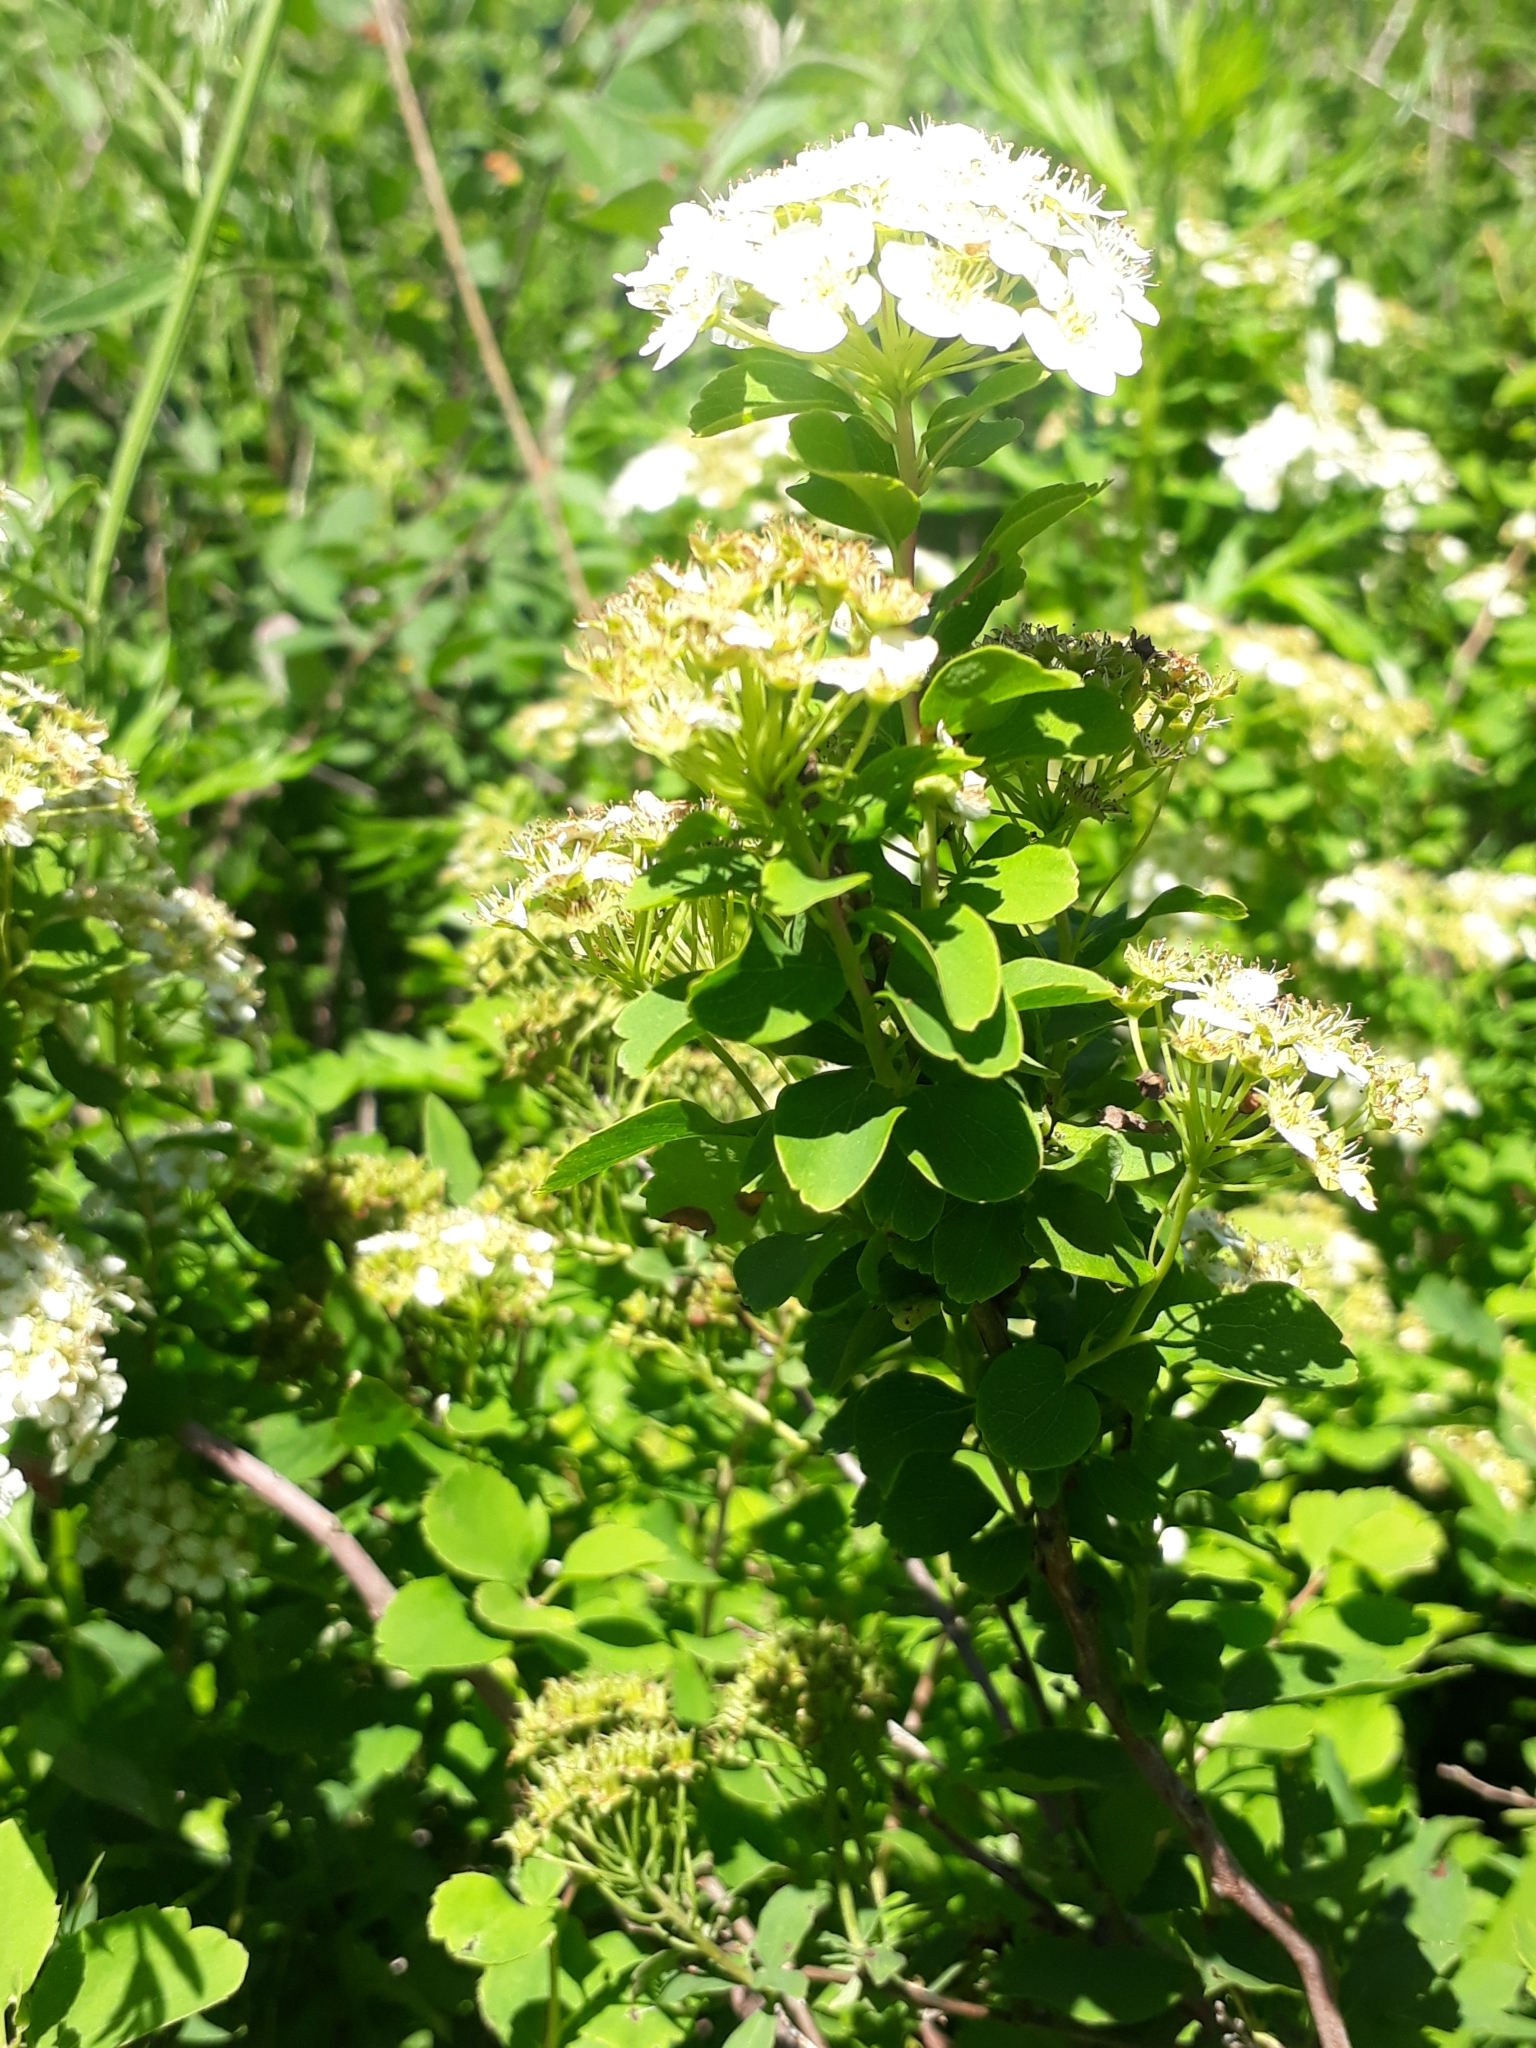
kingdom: Plantae
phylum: Tracheophyta
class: Magnoliopsida
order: Rosales
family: Rosaceae
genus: Spiraea
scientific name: Spiraea trilobata
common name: Asian meadowsweet
